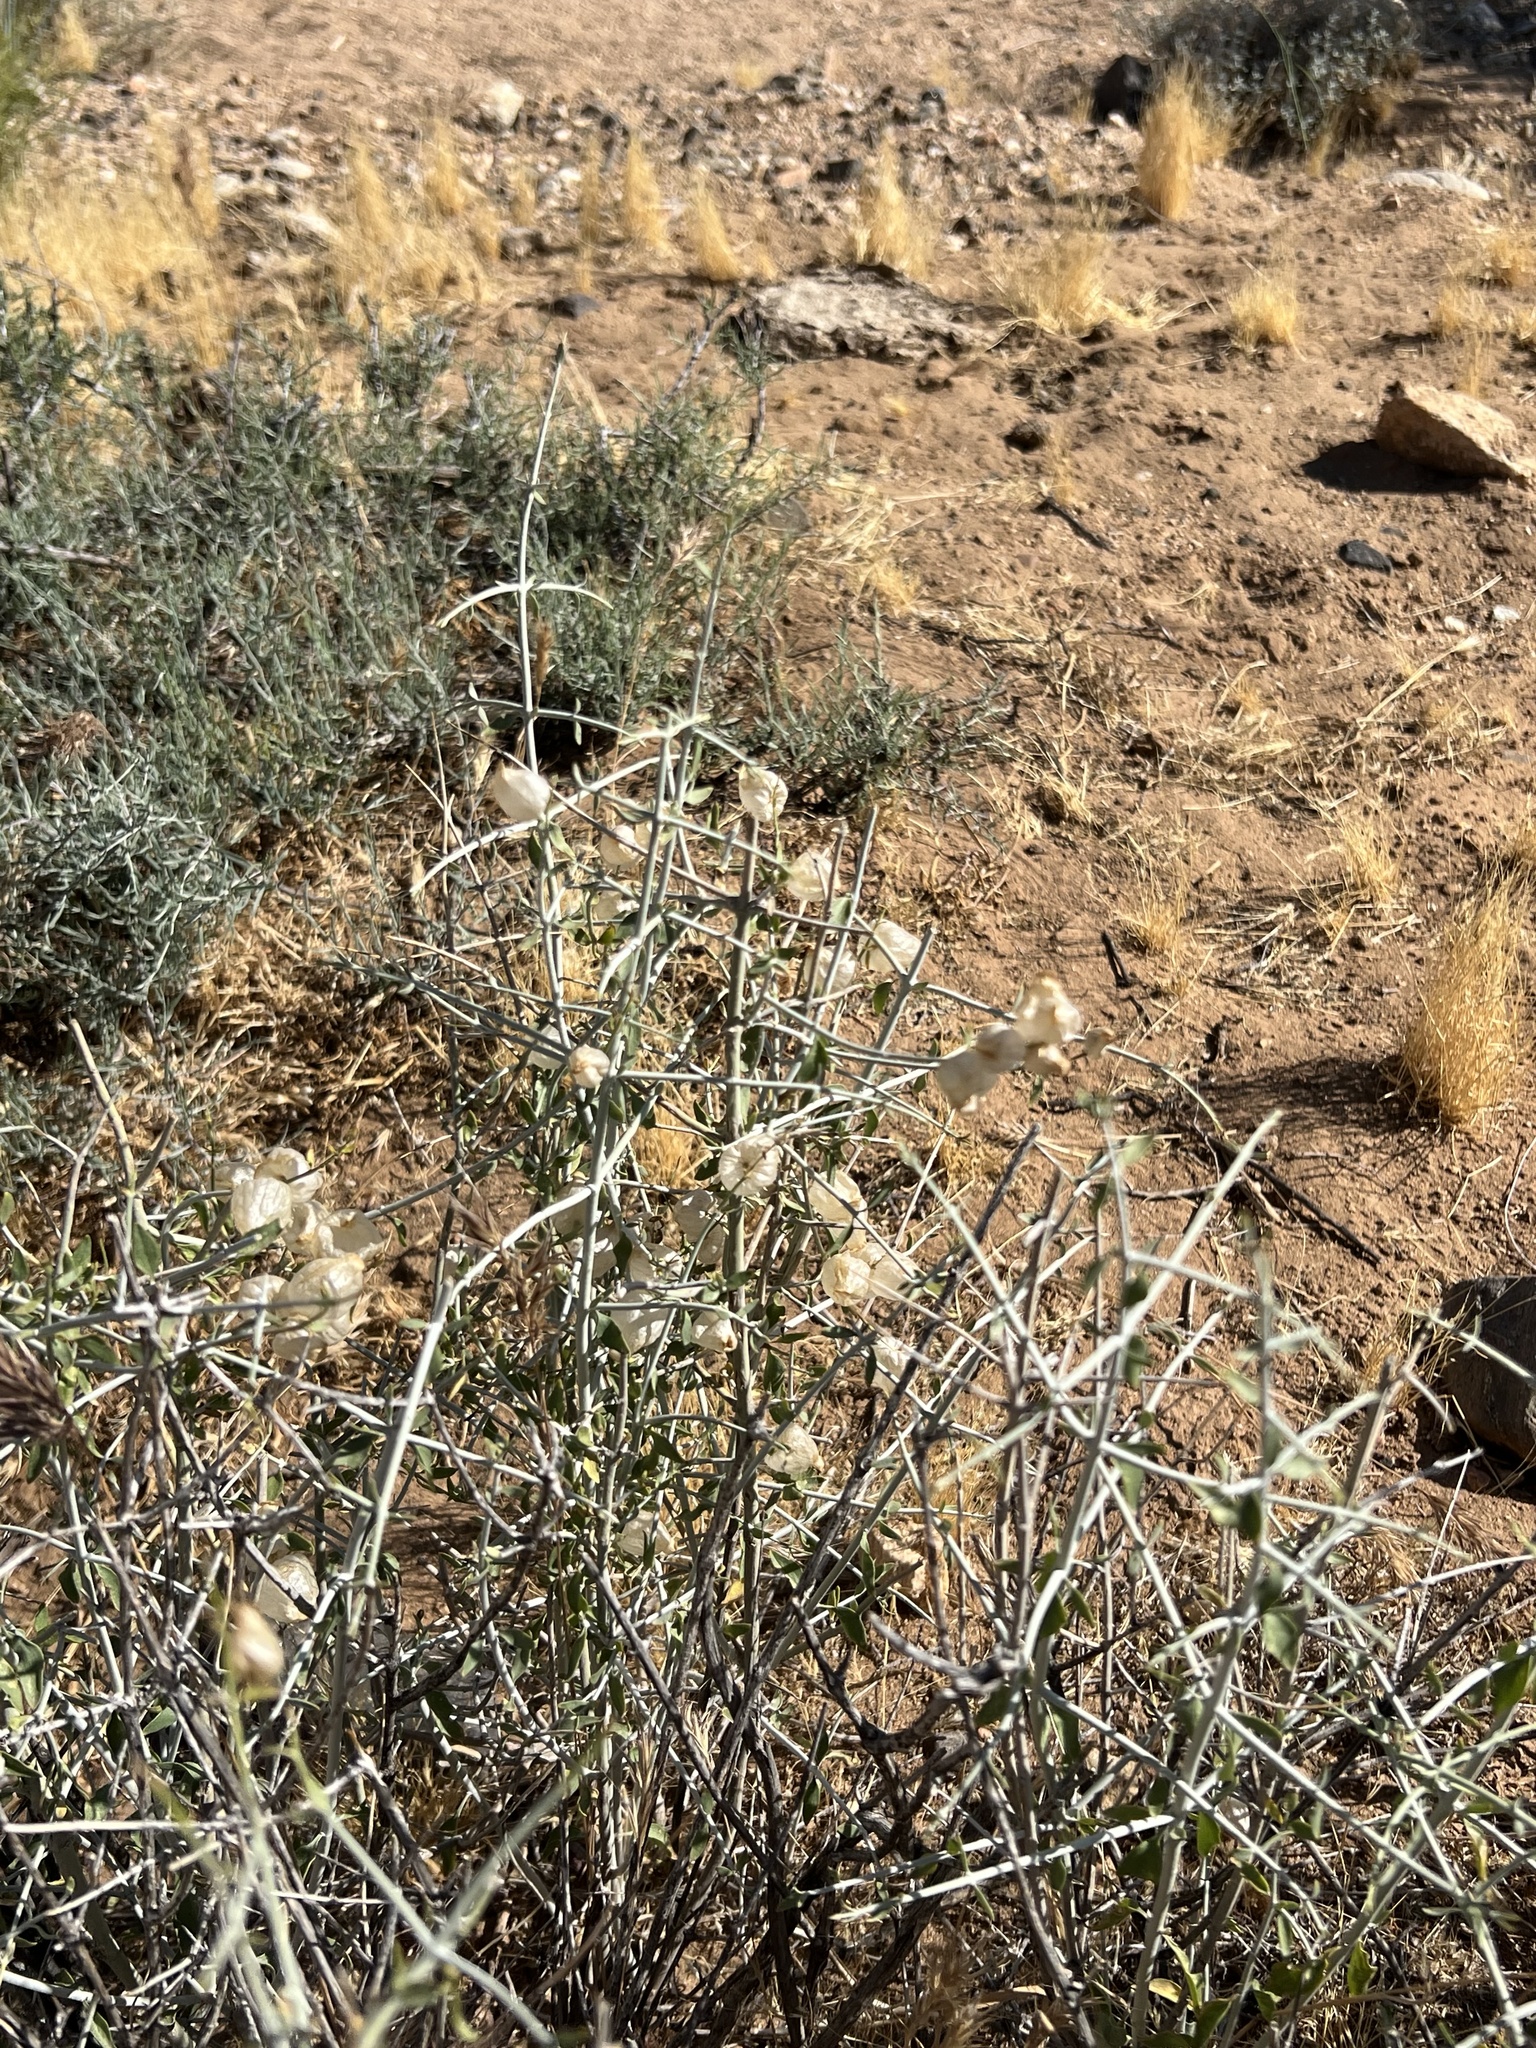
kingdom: Plantae
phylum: Tracheophyta
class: Magnoliopsida
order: Lamiales
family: Lamiaceae
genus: Scutellaria
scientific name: Scutellaria mexicana
